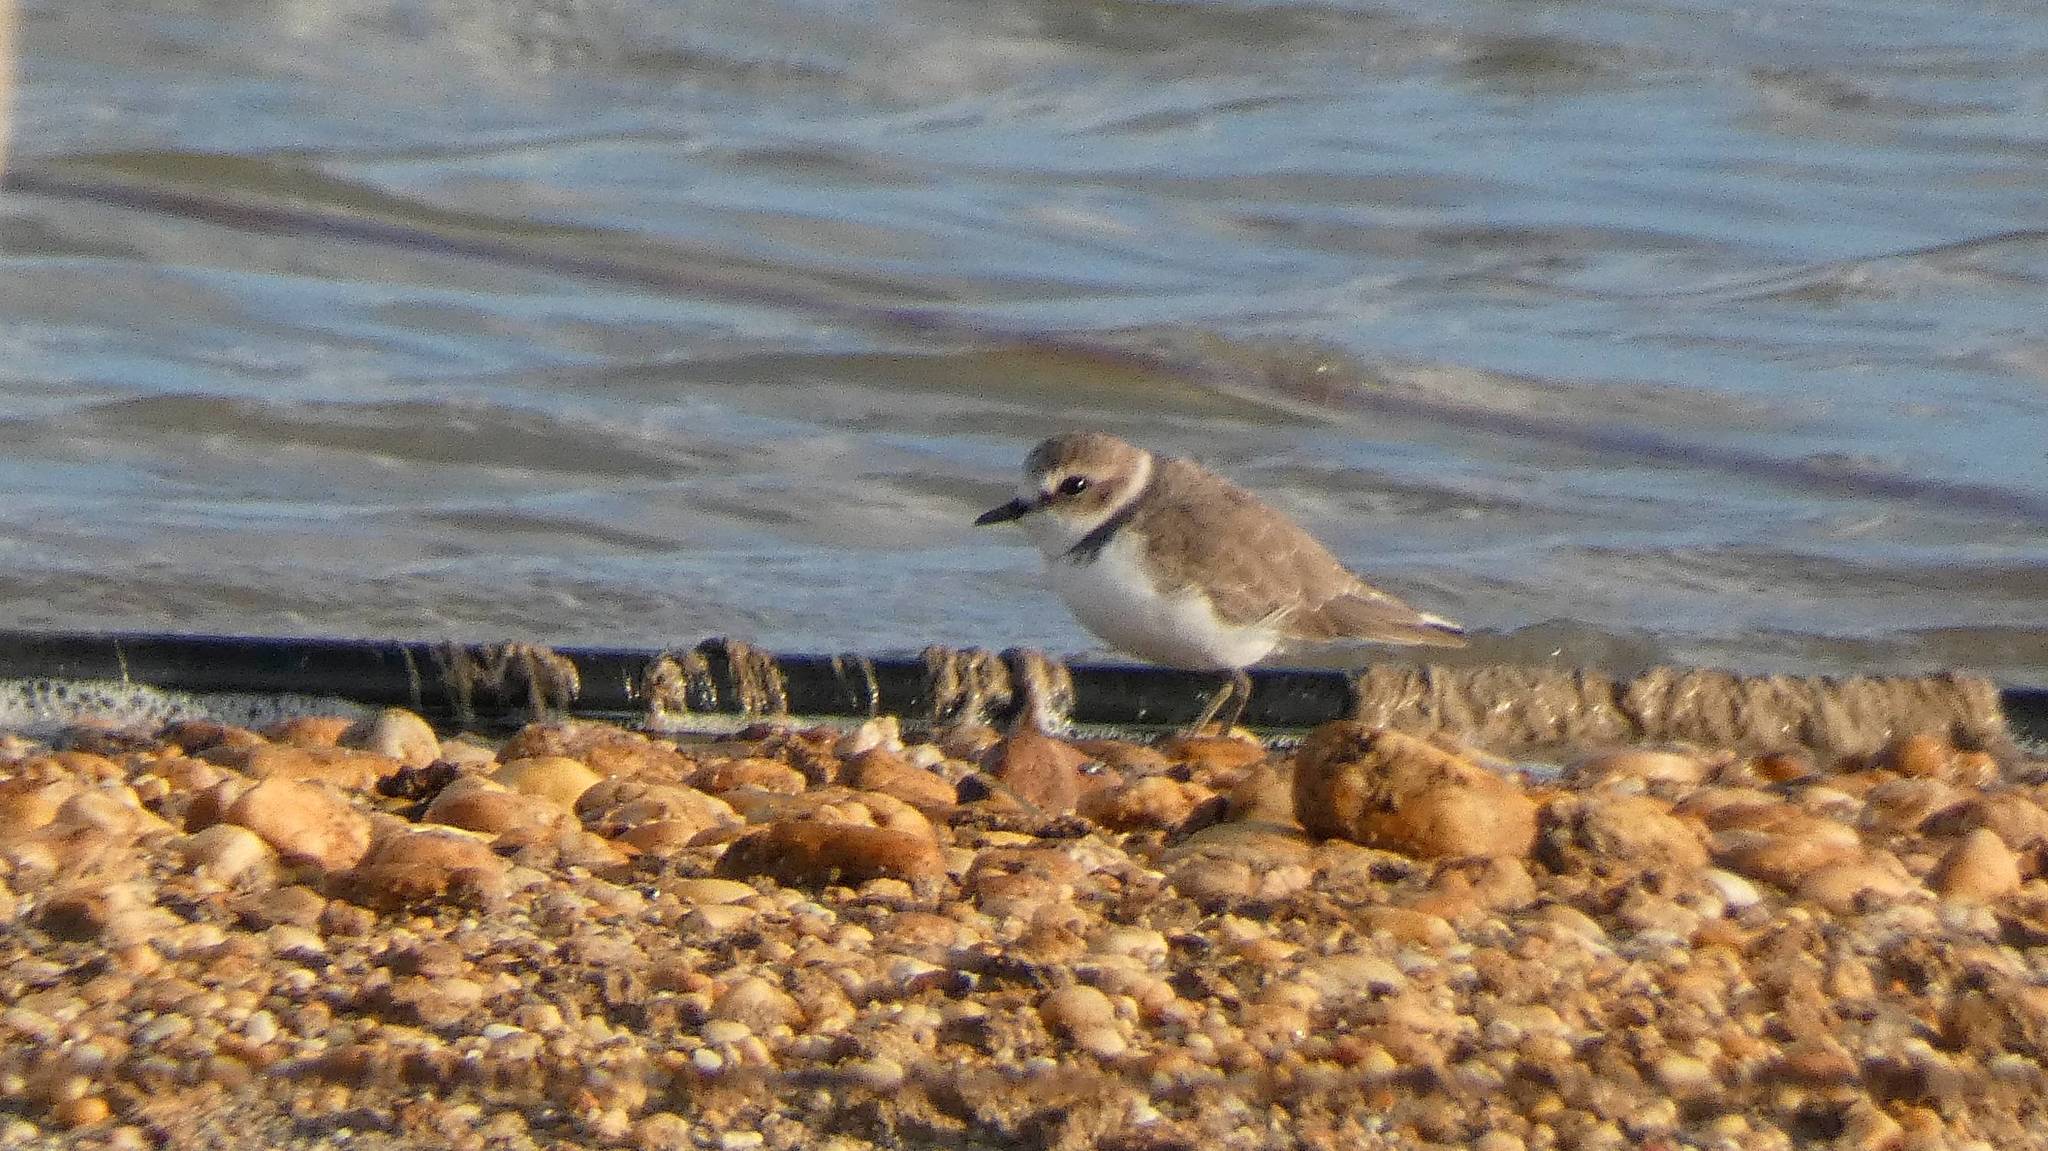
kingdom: Animalia
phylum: Chordata
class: Aves
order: Charadriiformes
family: Charadriidae
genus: Charadrius
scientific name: Charadrius alexandrinus
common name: Kentish plover
